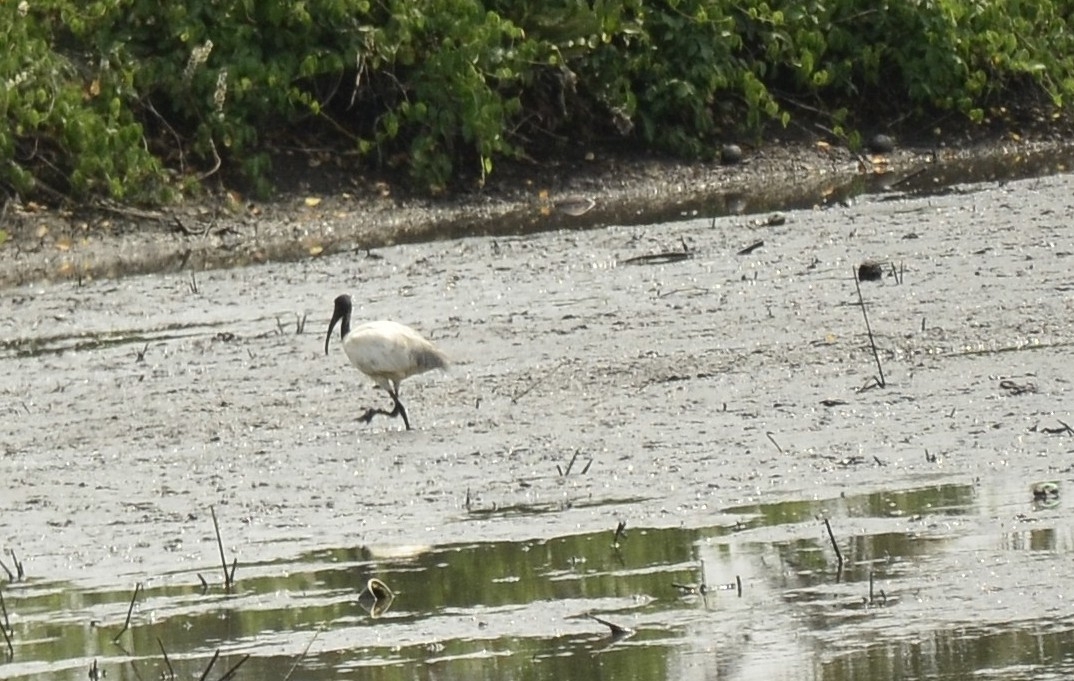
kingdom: Animalia
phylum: Chordata
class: Aves
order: Pelecaniformes
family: Threskiornithidae
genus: Threskiornis
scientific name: Threskiornis melanocephalus
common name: Black-headed ibis
